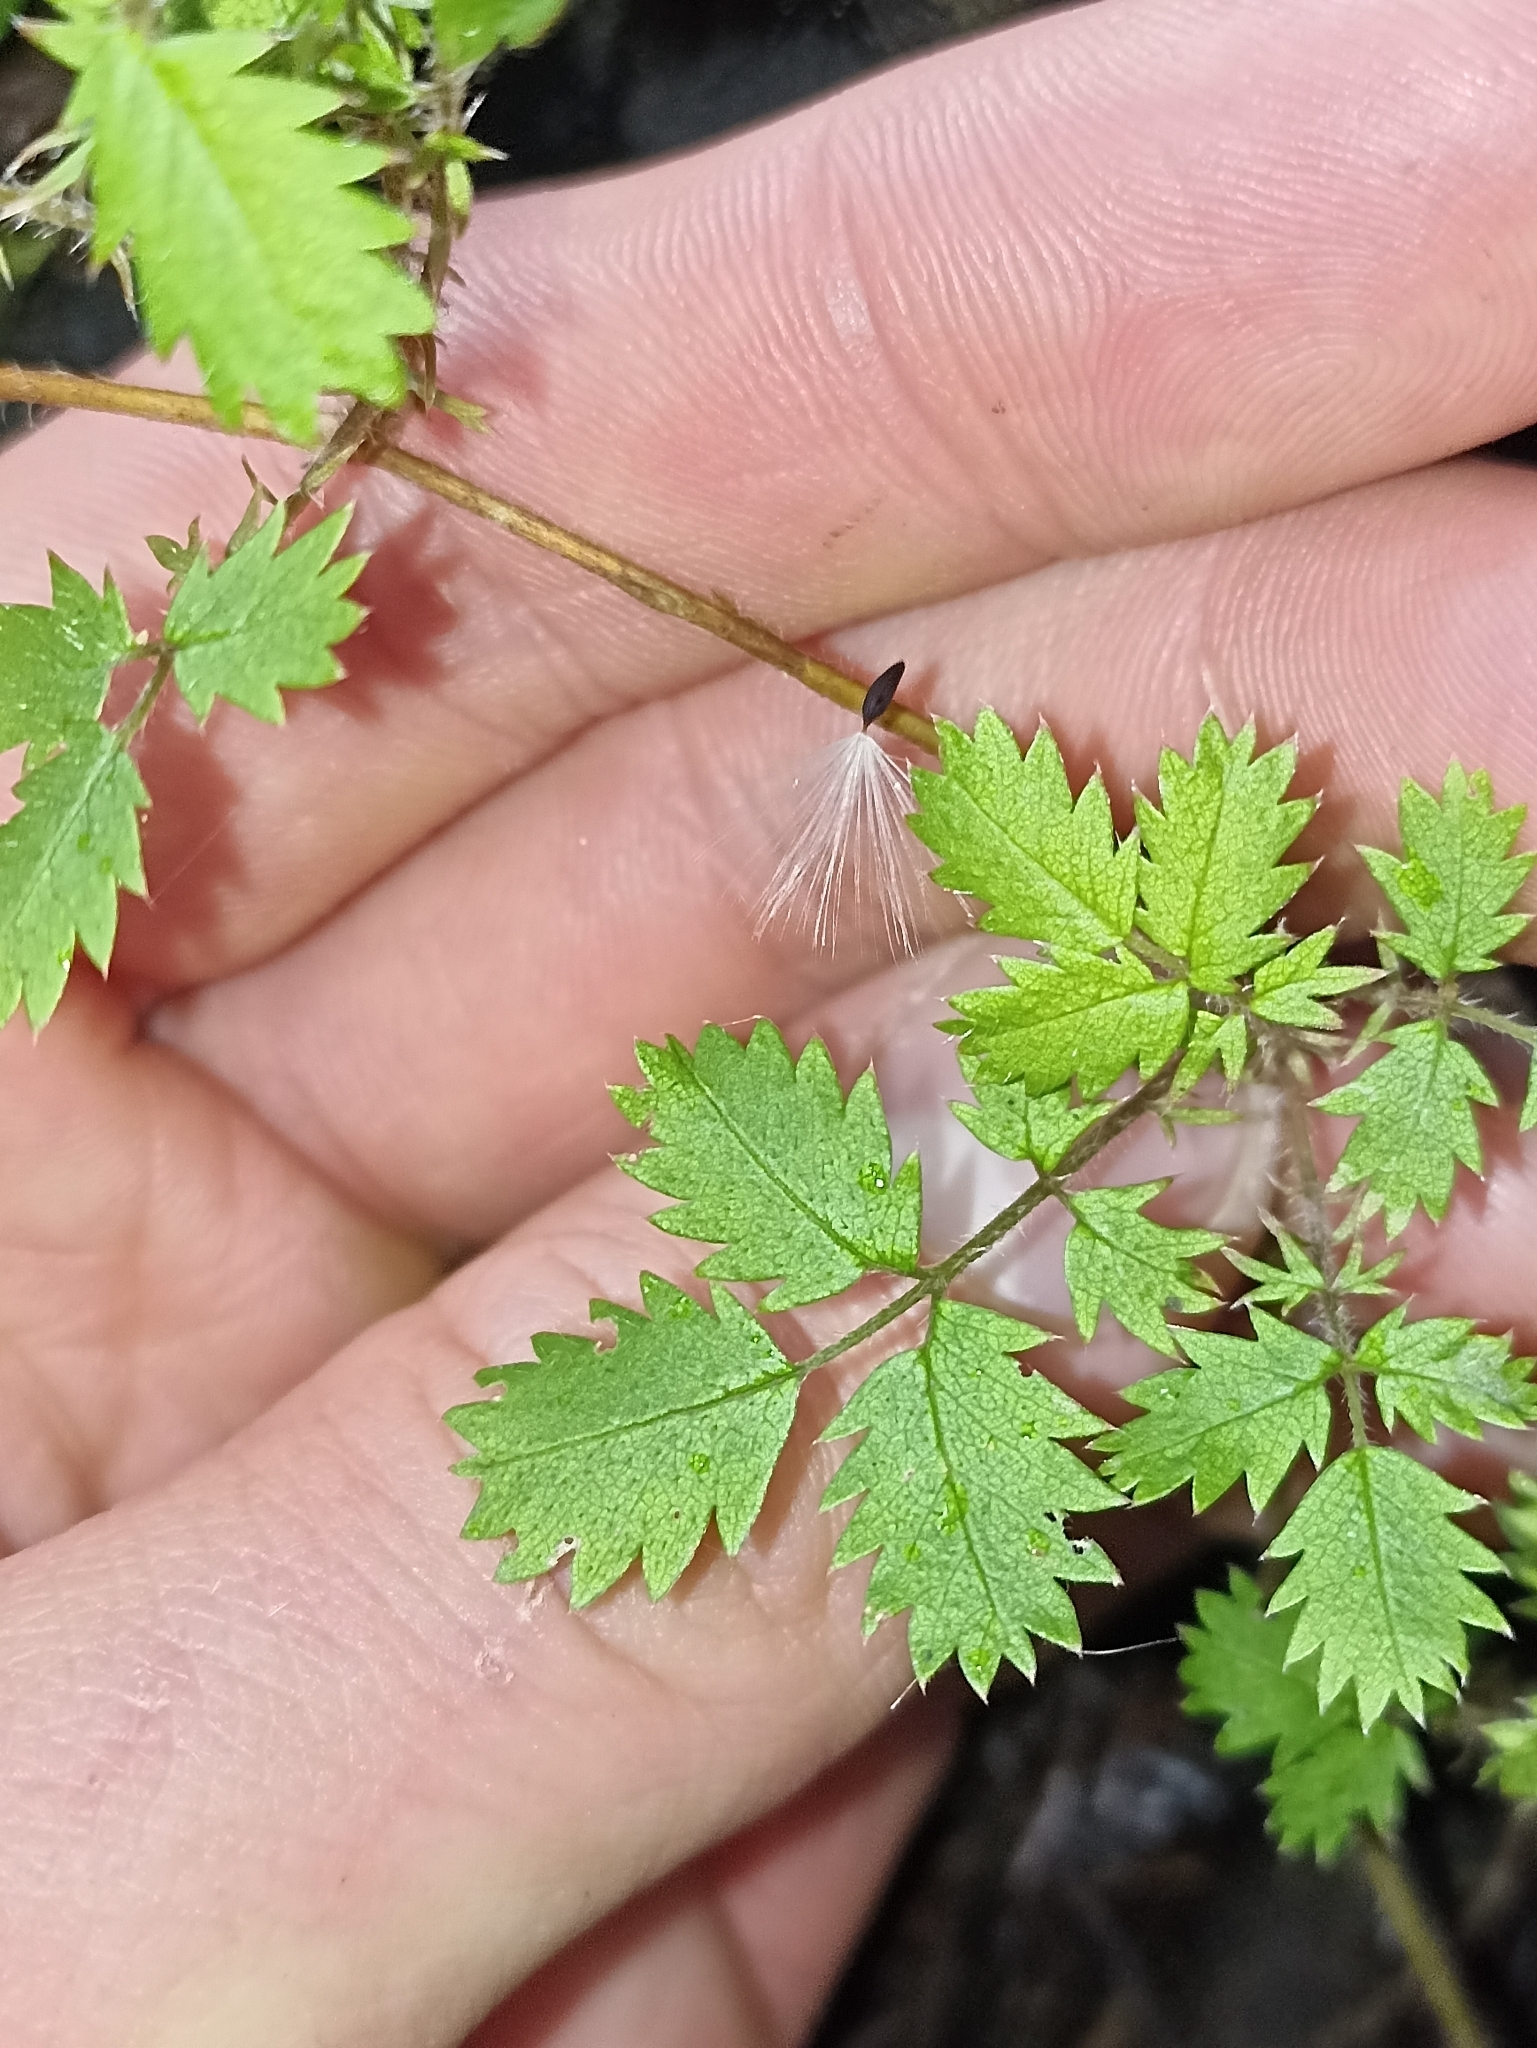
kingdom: Plantae
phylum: Tracheophyta
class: Magnoliopsida
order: Rosales
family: Rosaceae
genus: Acaena
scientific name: Acaena juvenca
